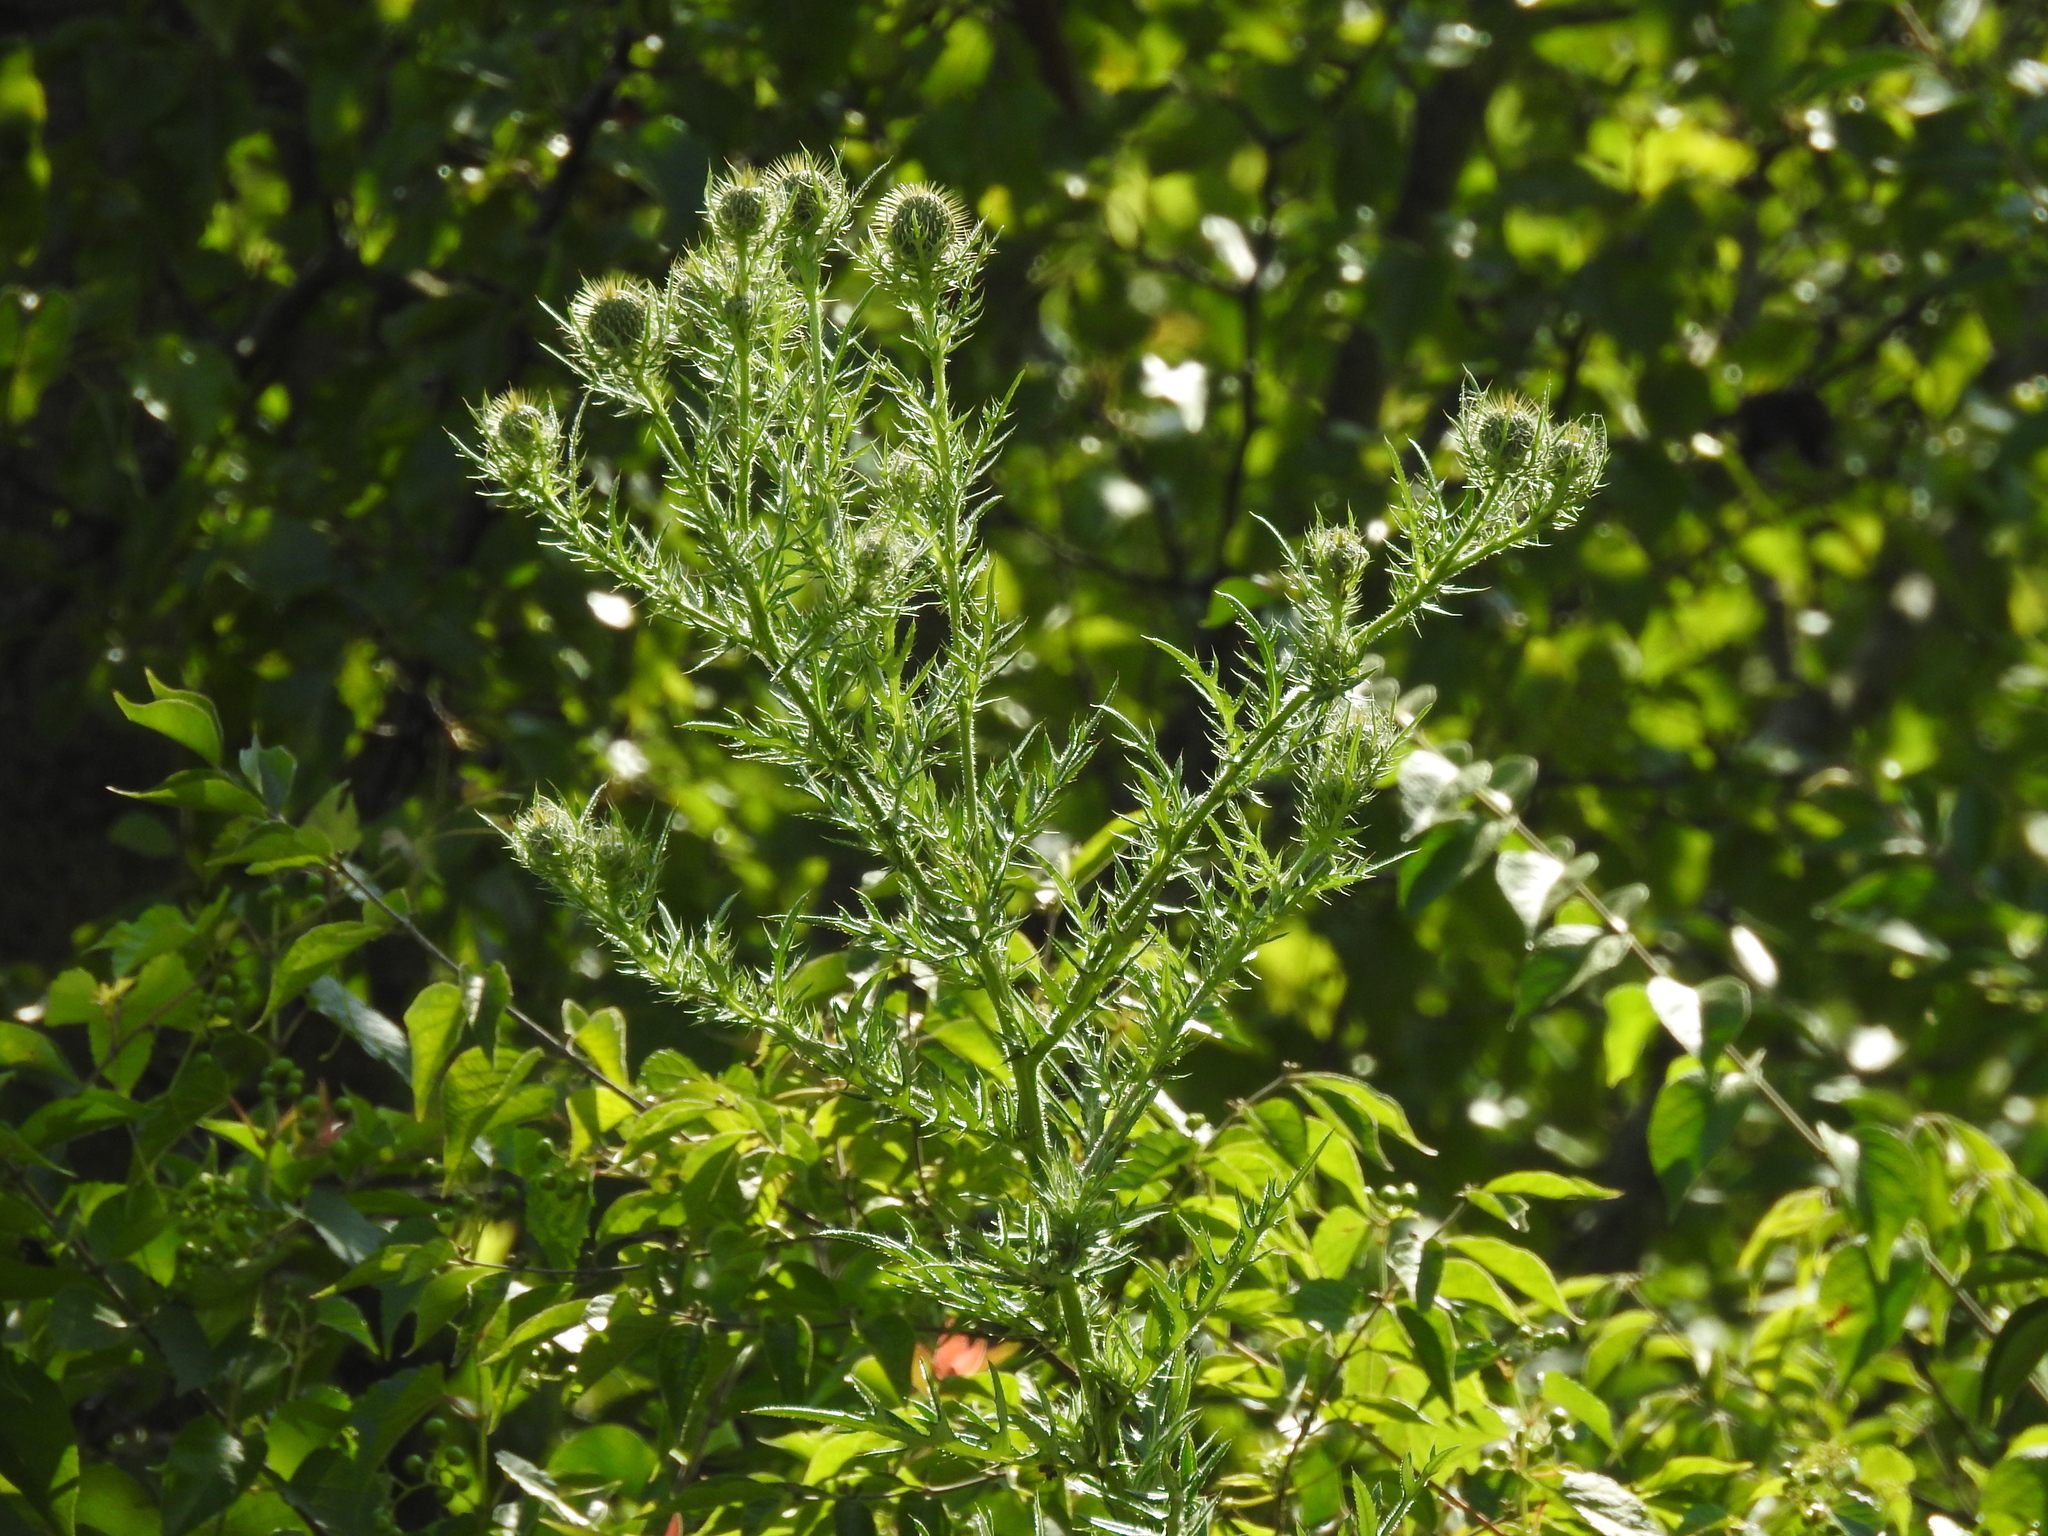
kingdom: Plantae
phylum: Tracheophyta
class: Magnoliopsida
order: Asterales
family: Asteraceae
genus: Cirsium
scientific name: Cirsium discolor
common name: Field thistle
